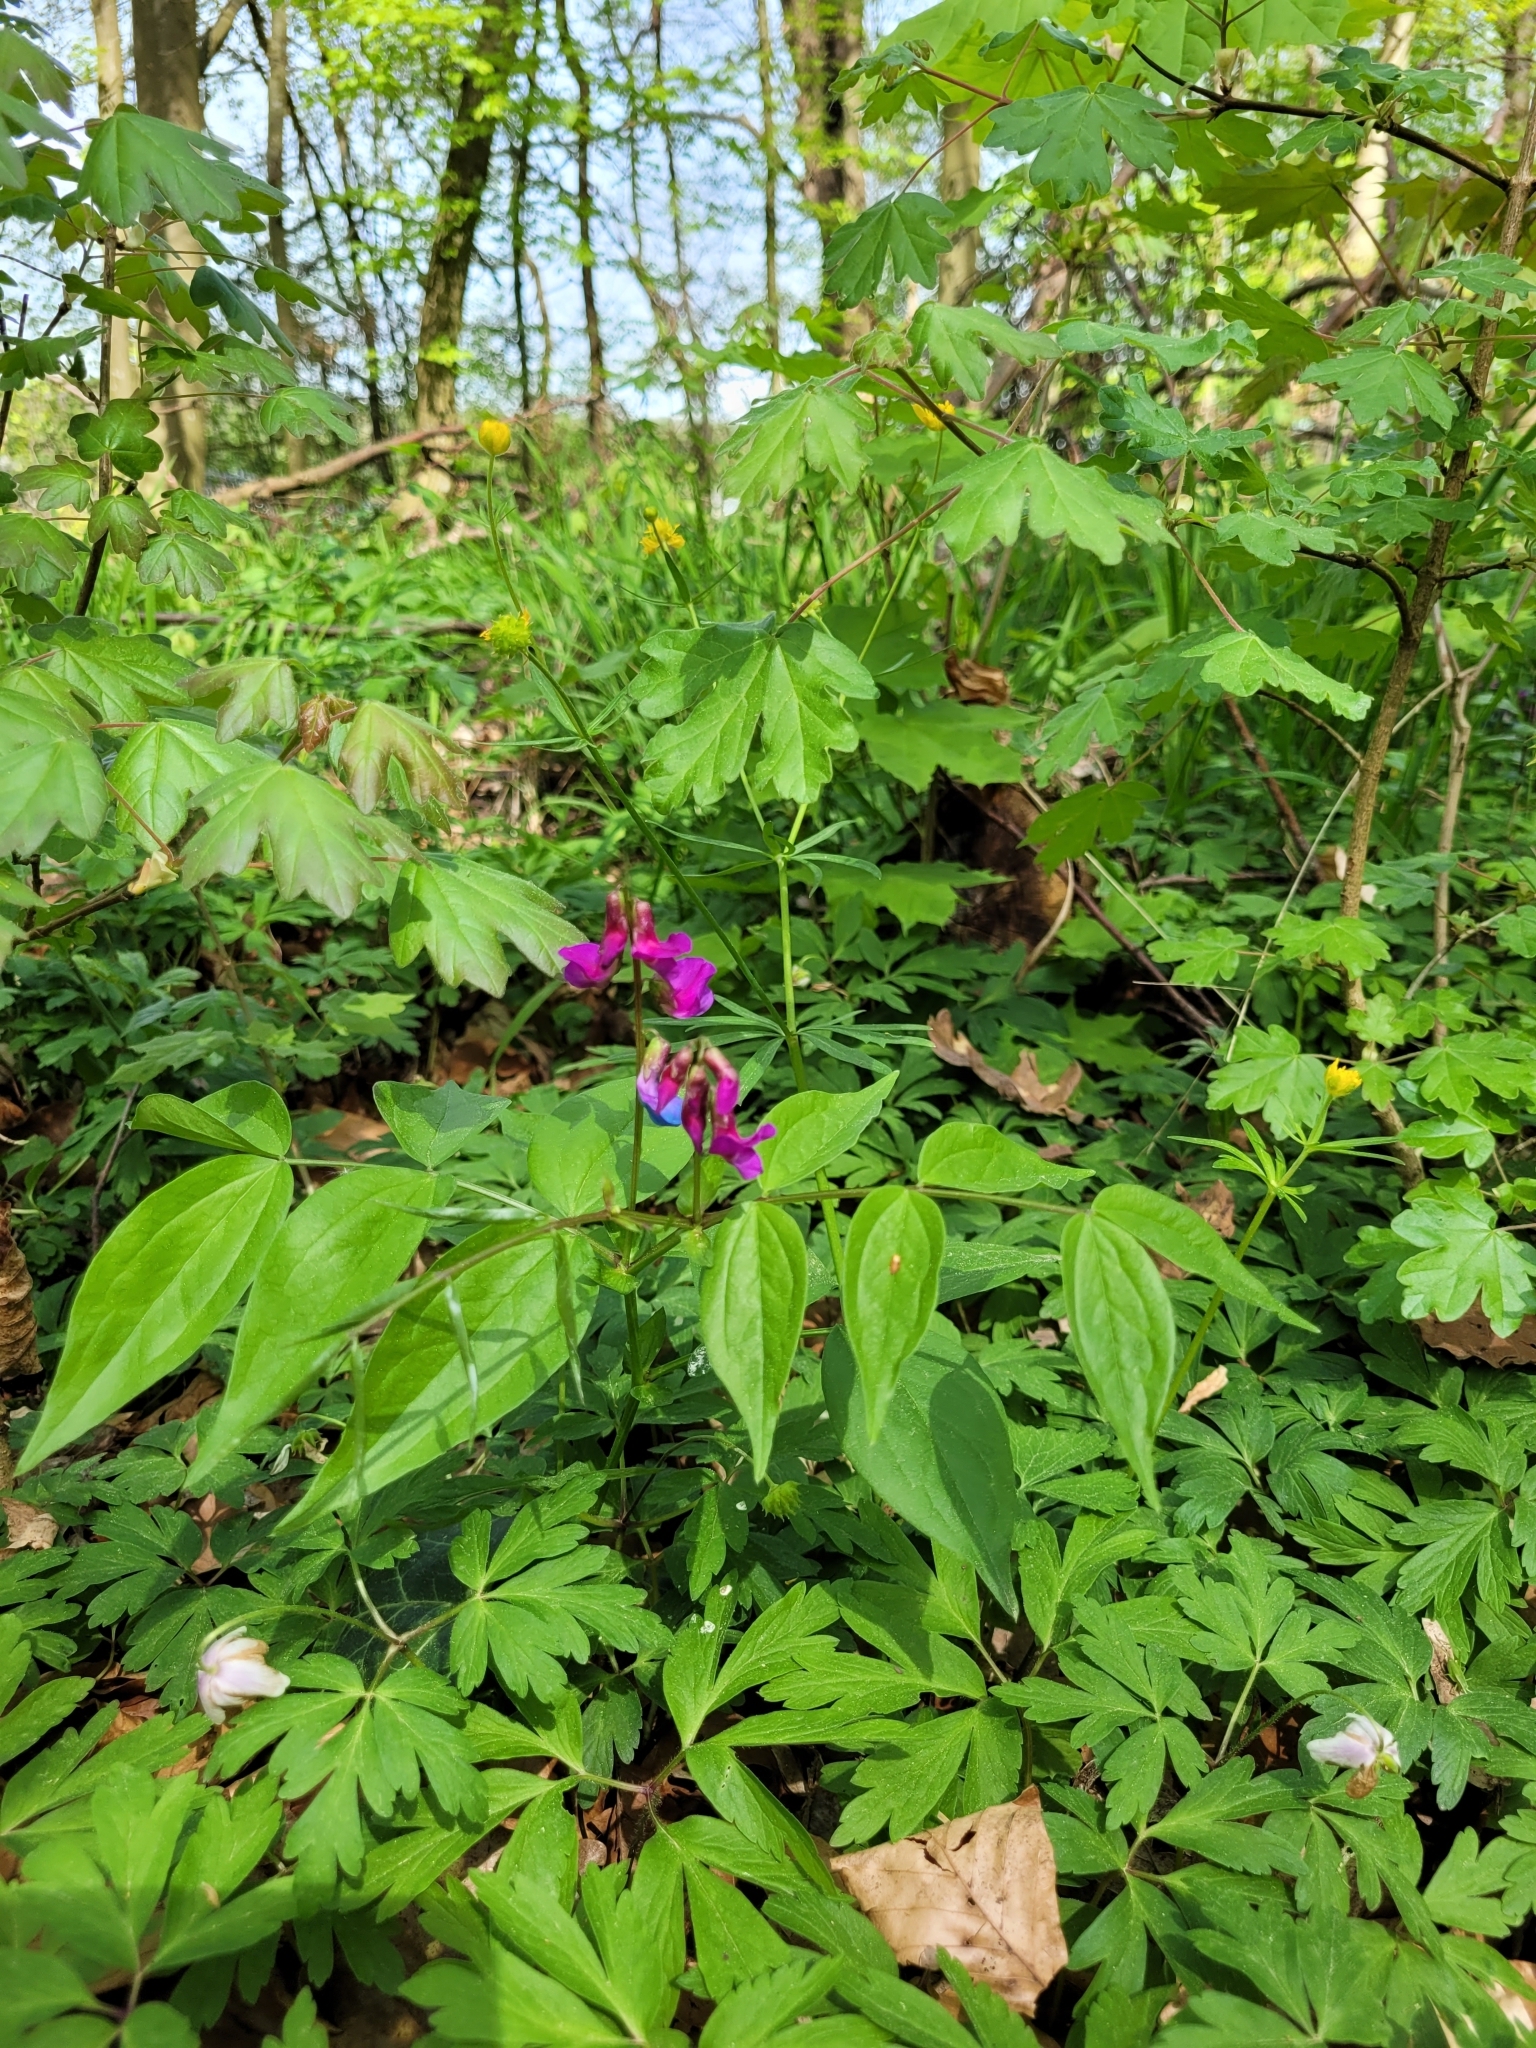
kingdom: Plantae
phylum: Tracheophyta
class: Magnoliopsida
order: Fabales
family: Fabaceae
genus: Lathyrus
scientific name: Lathyrus vernus
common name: Spring pea
